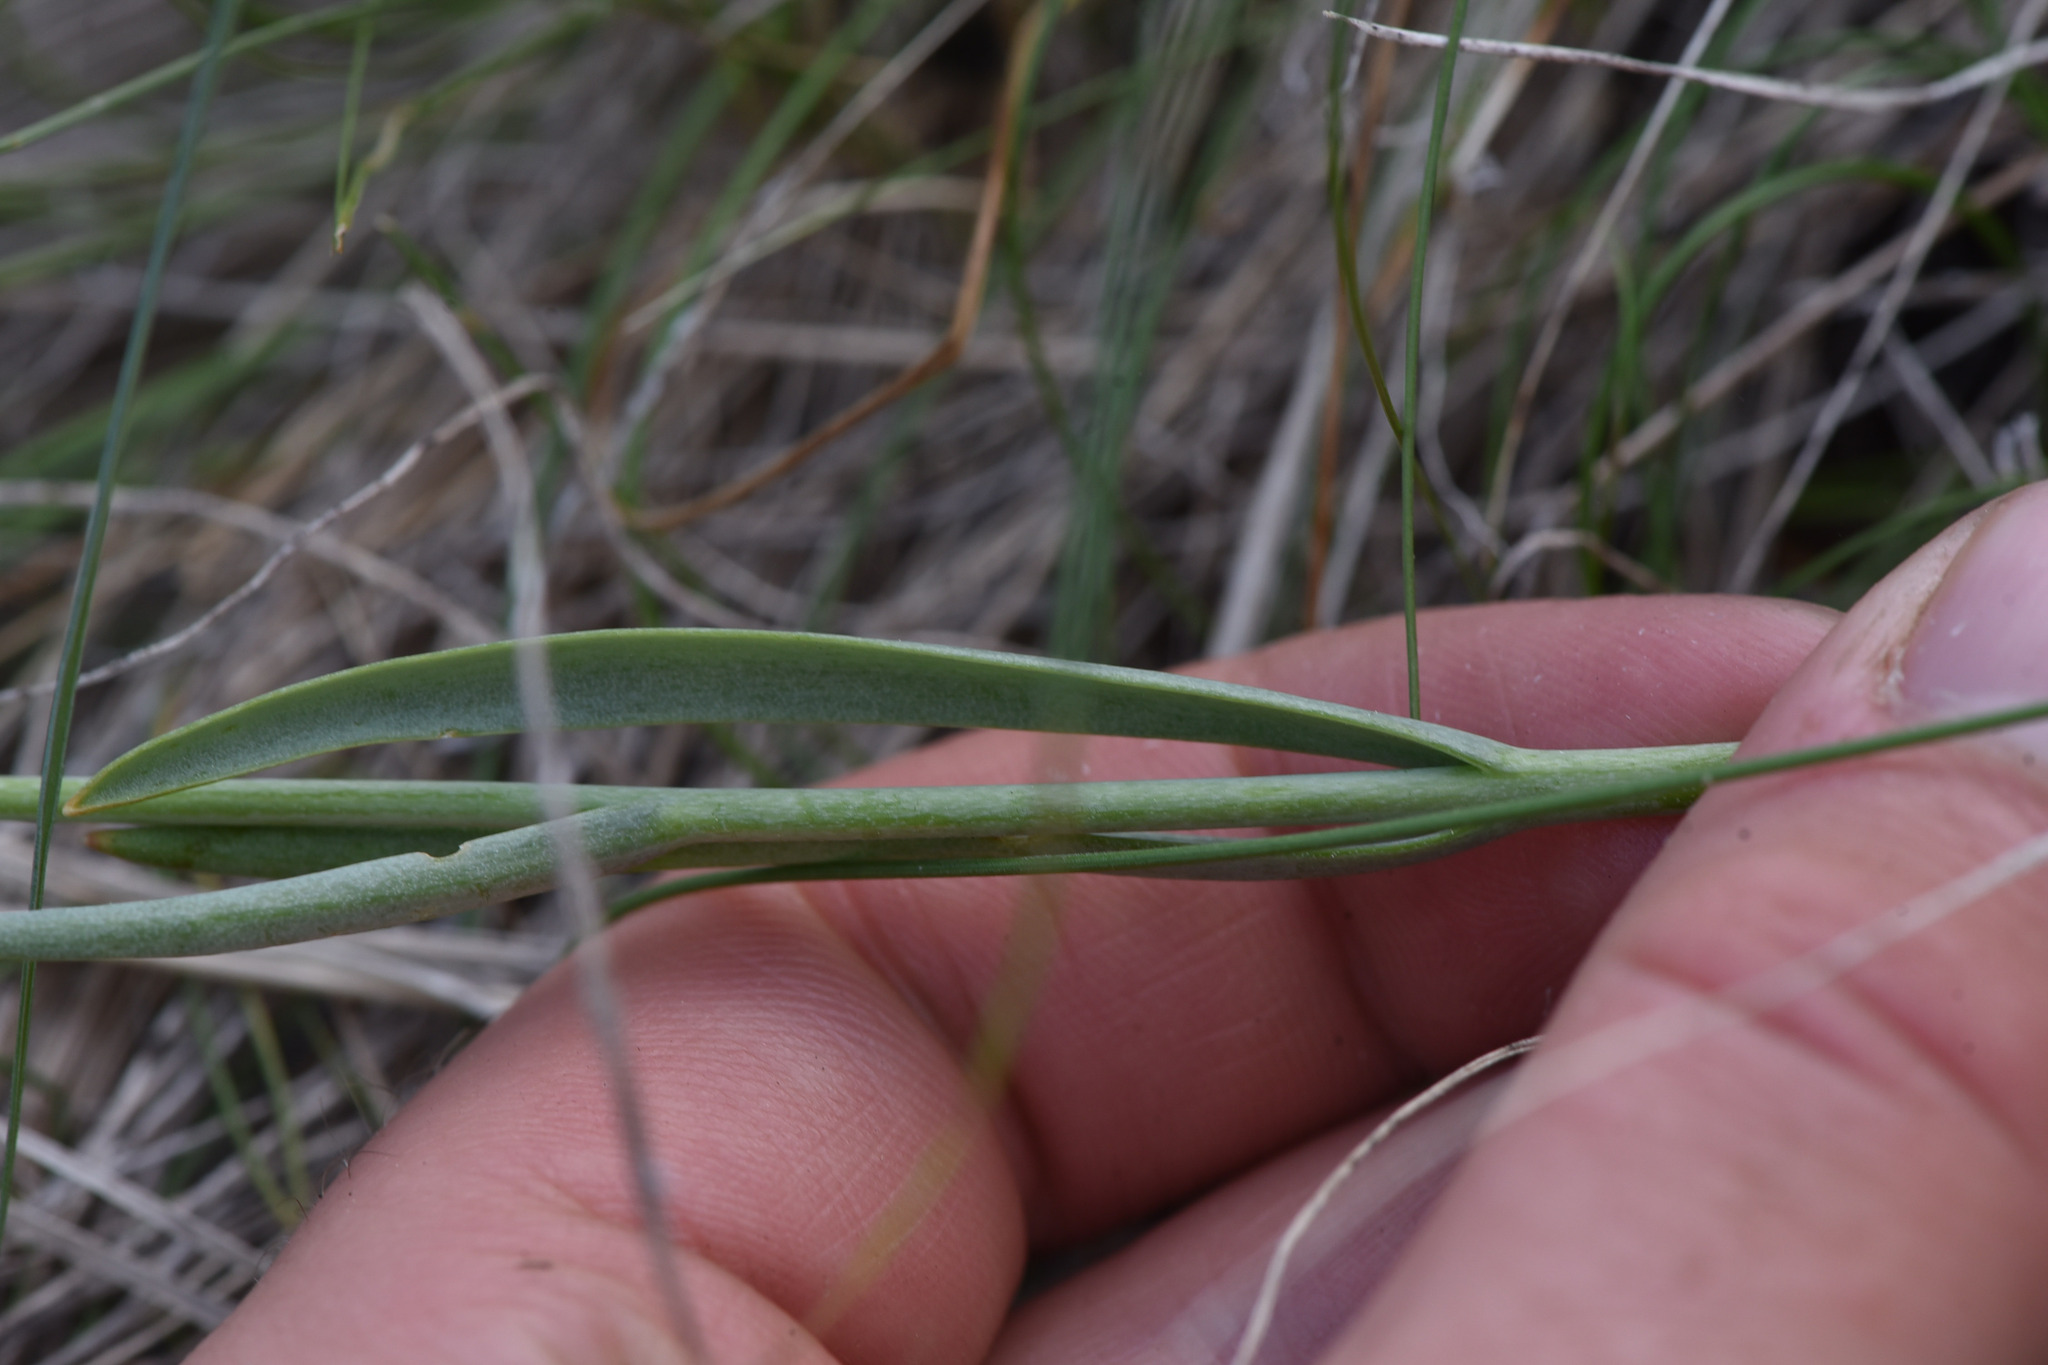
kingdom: Plantae
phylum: Tracheophyta
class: Liliopsida
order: Liliales
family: Liliaceae
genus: Fritillaria
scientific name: Fritillaria pudica
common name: Yellow fritillary
